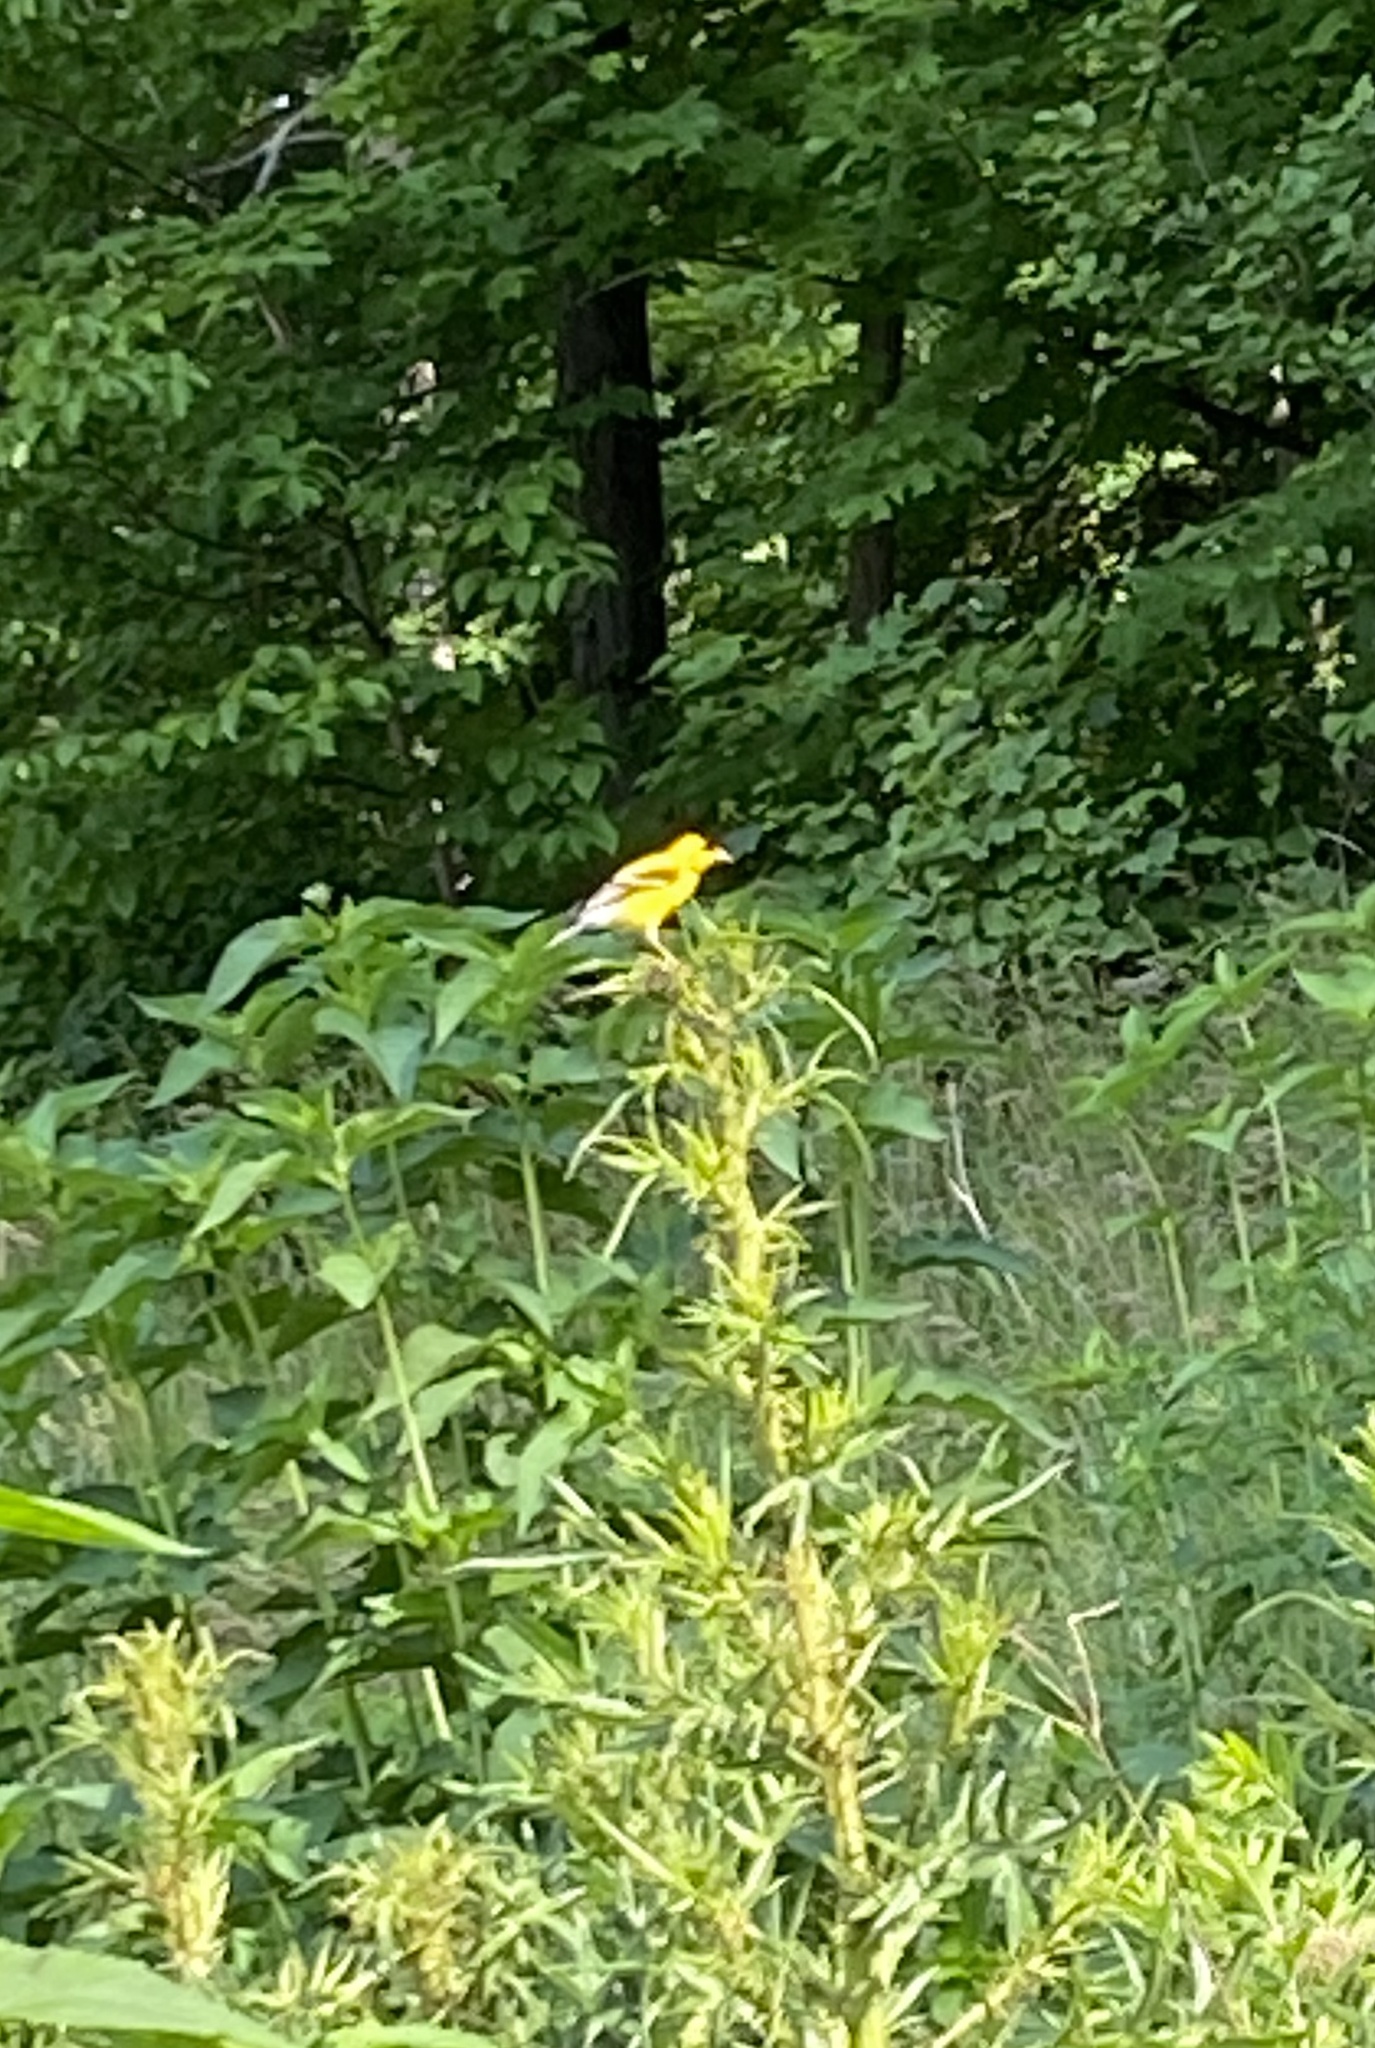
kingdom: Animalia
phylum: Chordata
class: Aves
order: Passeriformes
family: Fringillidae
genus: Spinus
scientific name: Spinus tristis
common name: American goldfinch
